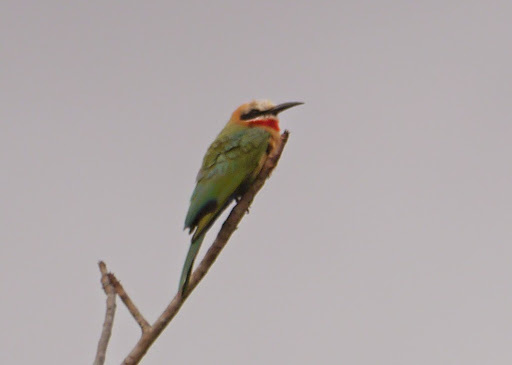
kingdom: Animalia
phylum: Chordata
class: Aves
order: Coraciiformes
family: Meropidae
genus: Merops
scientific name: Merops bullockoides
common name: White-fronted bee-eater
